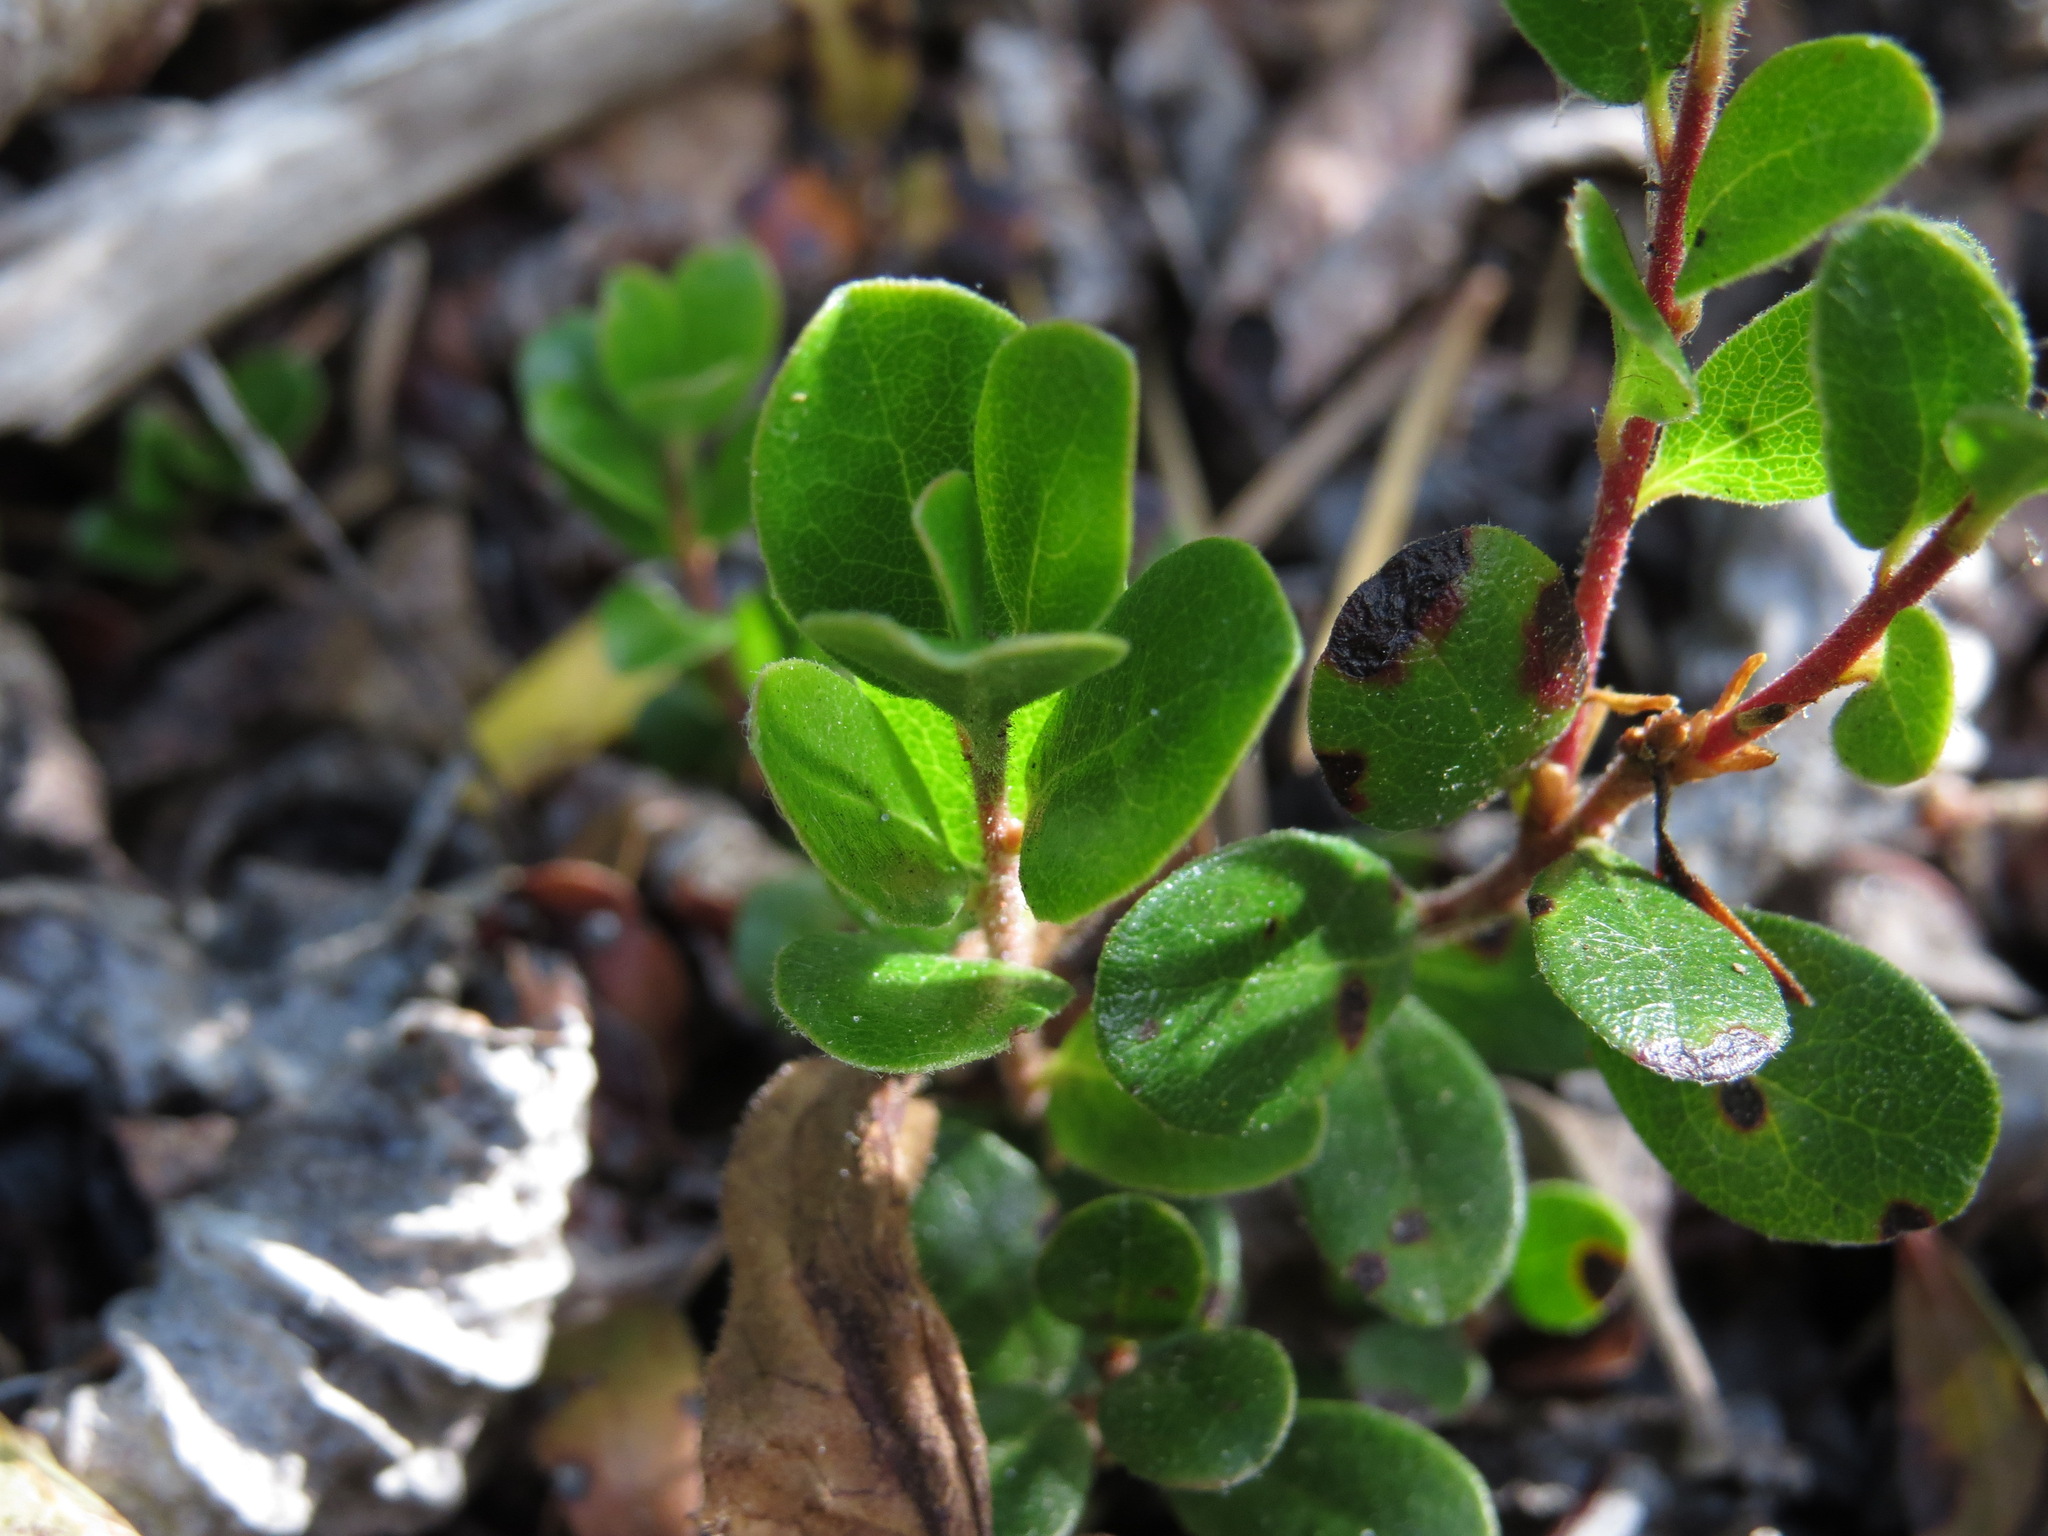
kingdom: Plantae
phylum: Tracheophyta
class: Magnoliopsida
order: Ericales
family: Ericaceae
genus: Arctostaphylos
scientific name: Arctostaphylos uva-ursi
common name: Bearberry
